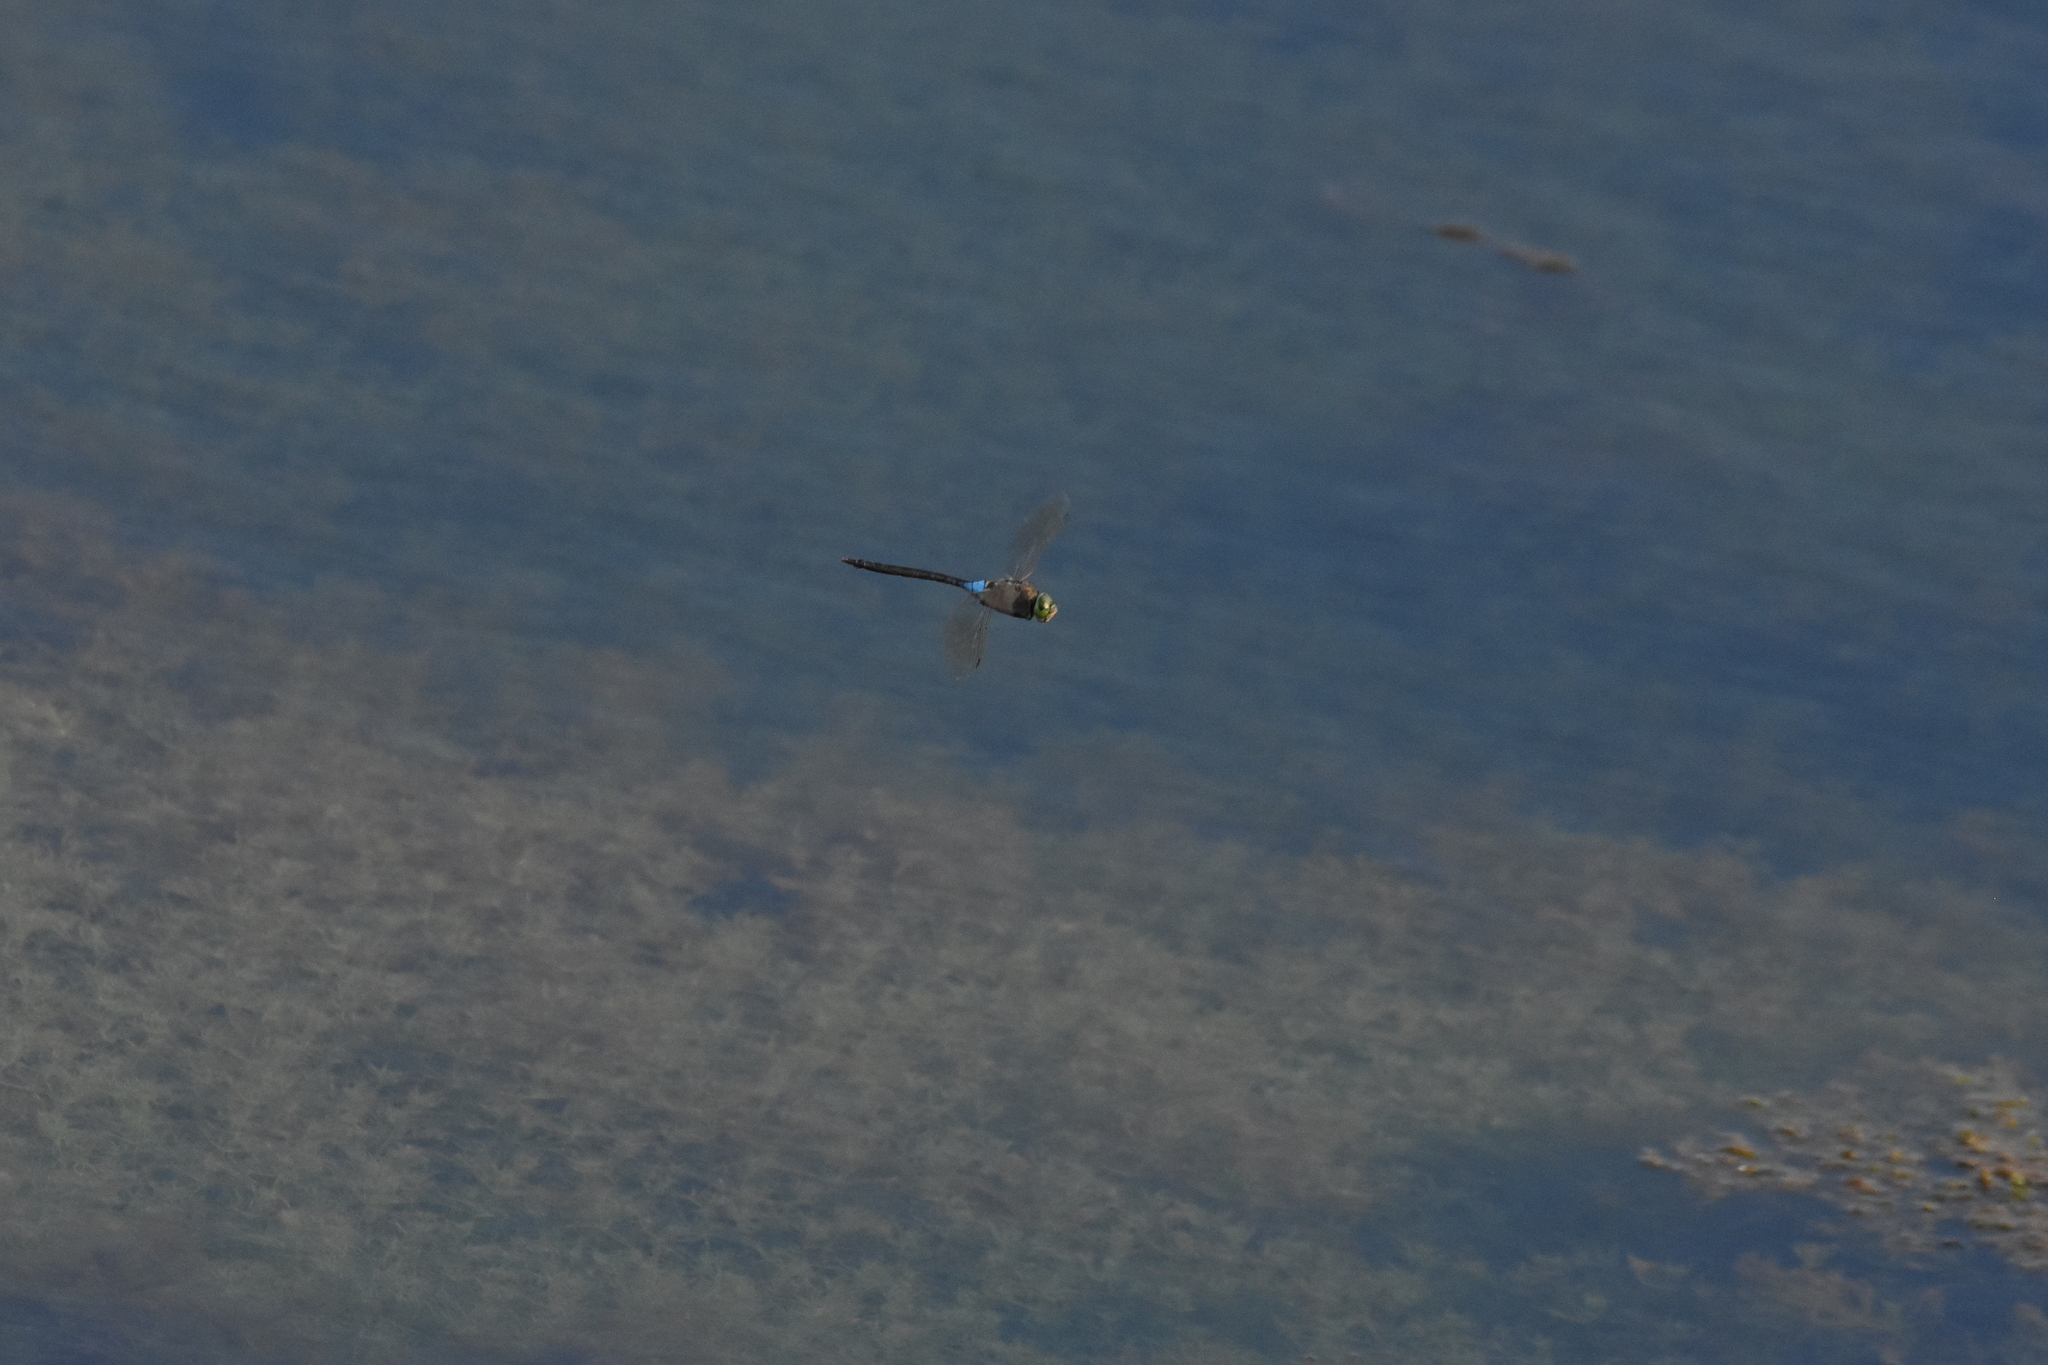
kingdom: Animalia
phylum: Arthropoda
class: Insecta
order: Odonata
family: Aeshnidae
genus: Anax
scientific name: Anax parthenope
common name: Lesser emperor
